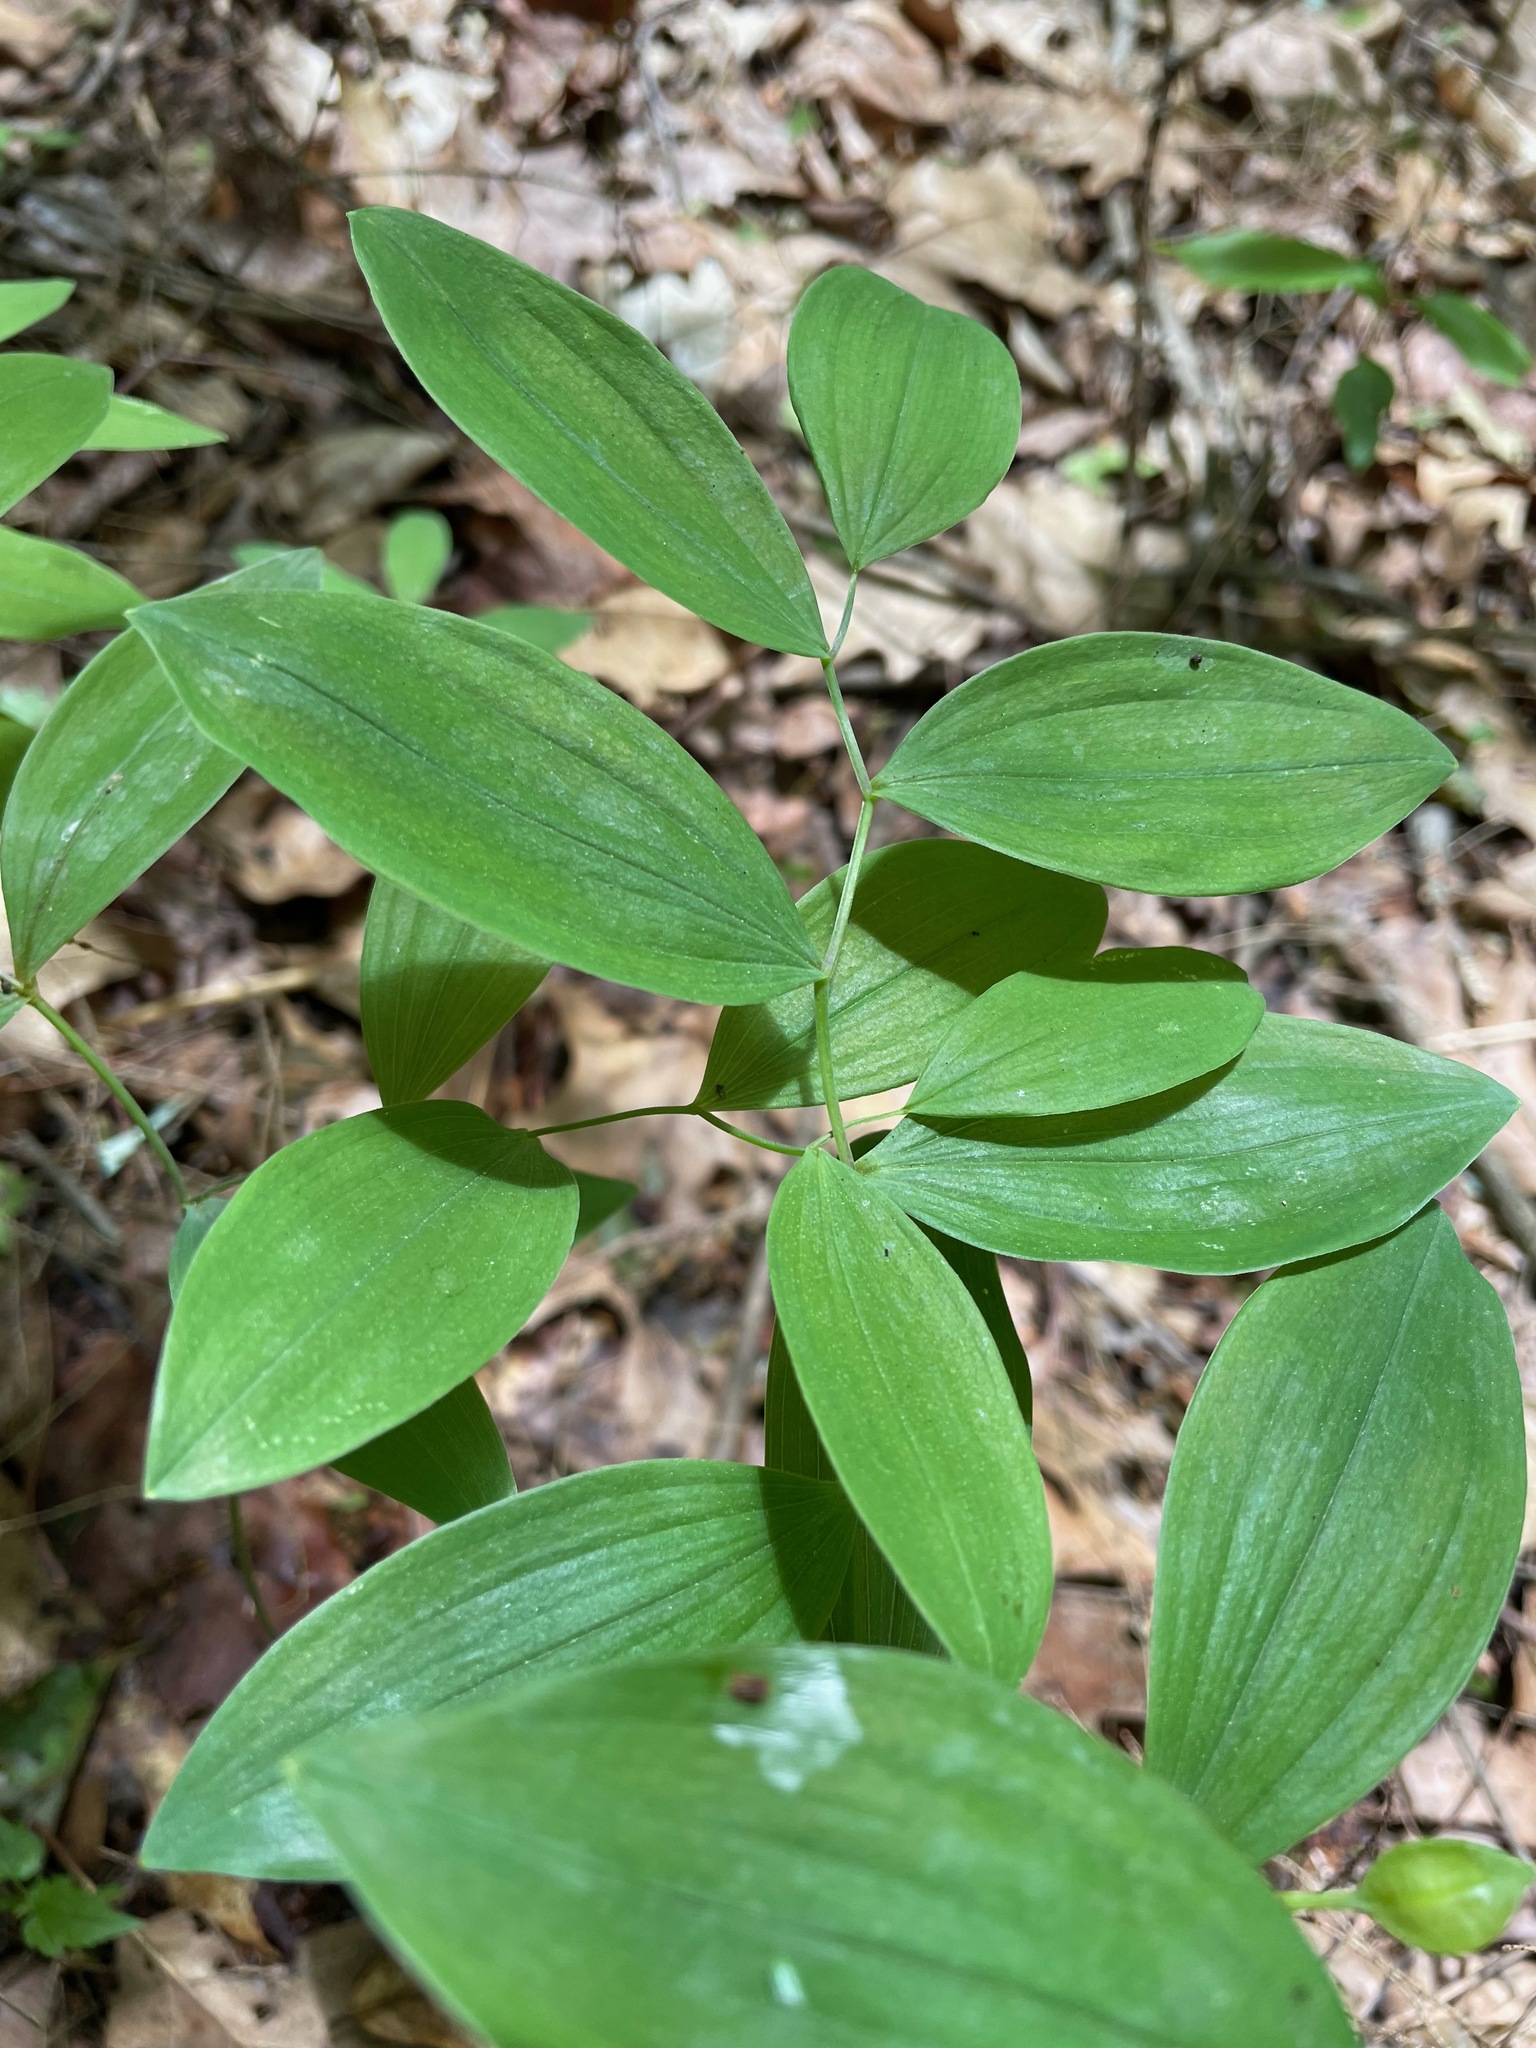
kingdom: Plantae
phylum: Tracheophyta
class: Liliopsida
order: Liliales
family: Colchicaceae
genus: Uvularia
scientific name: Uvularia sessilifolia
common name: Straw-lily
